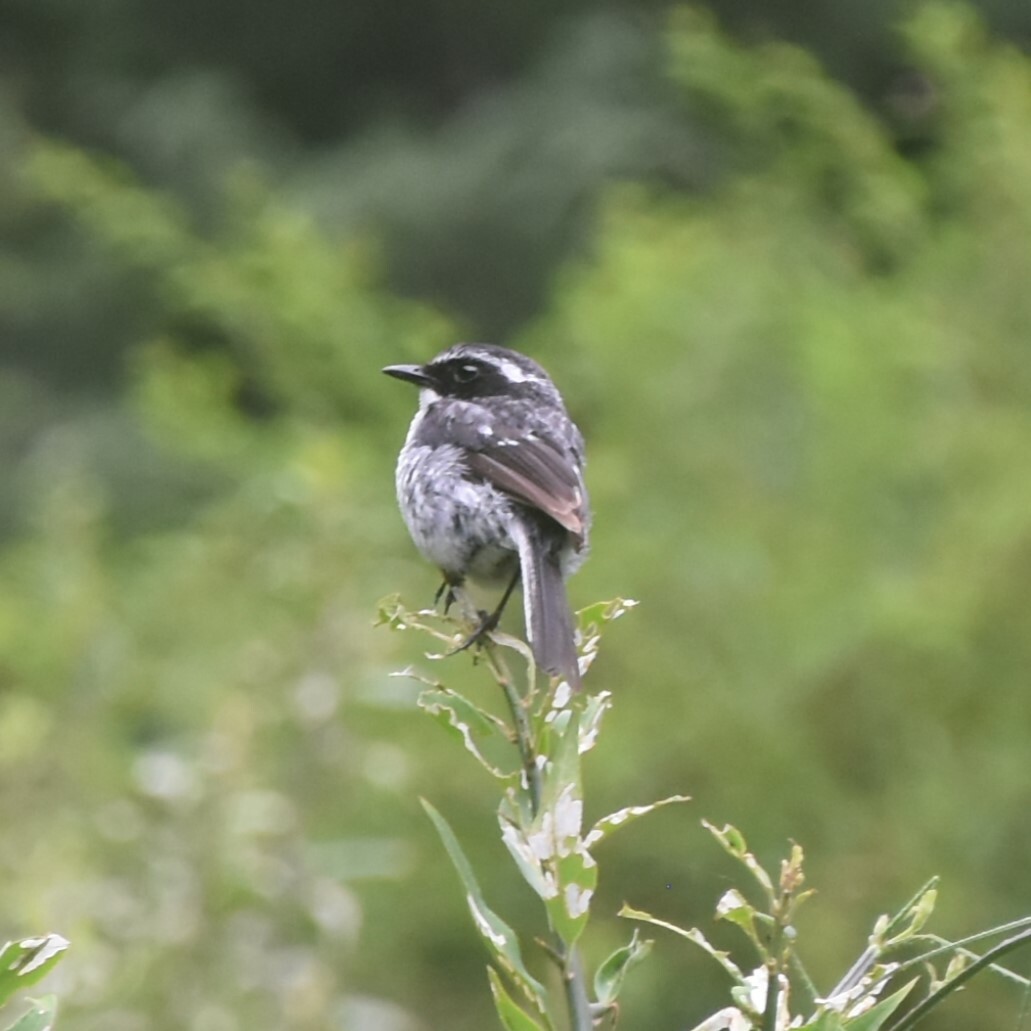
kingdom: Animalia
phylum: Chordata
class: Aves
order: Passeriformes
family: Muscicapidae
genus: Saxicola
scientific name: Saxicola ferreus
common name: Grey bush chat
